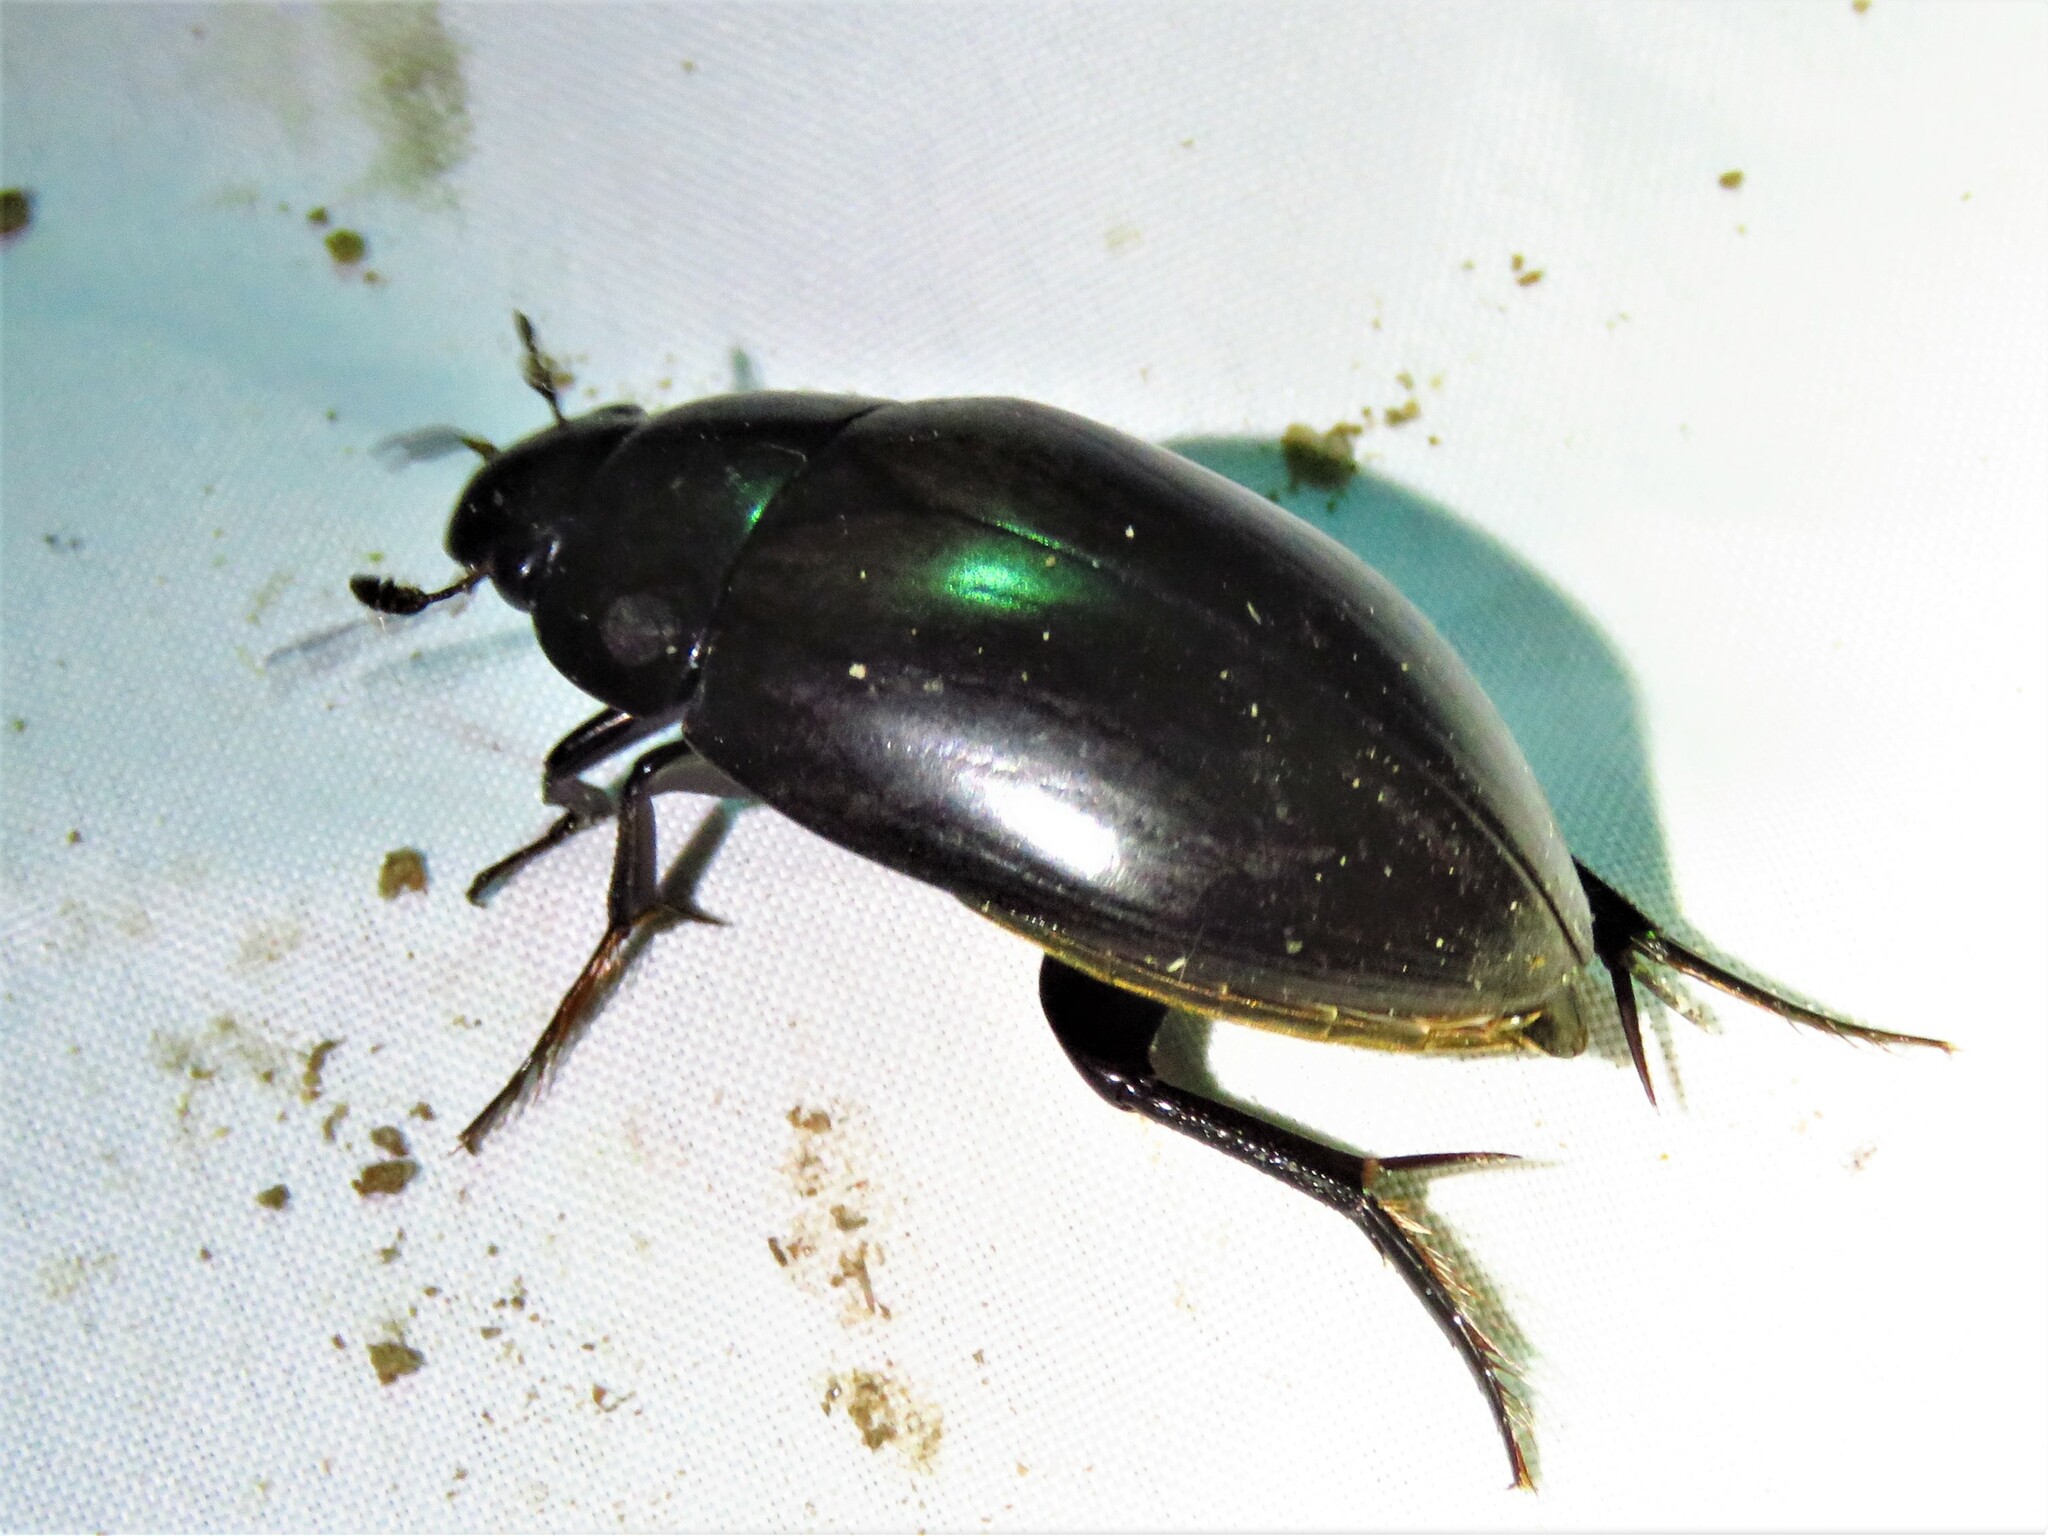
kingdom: Animalia
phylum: Arthropoda
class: Insecta
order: Coleoptera
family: Hydrophilidae
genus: Hydrophilus
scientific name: Hydrophilus ovatus
